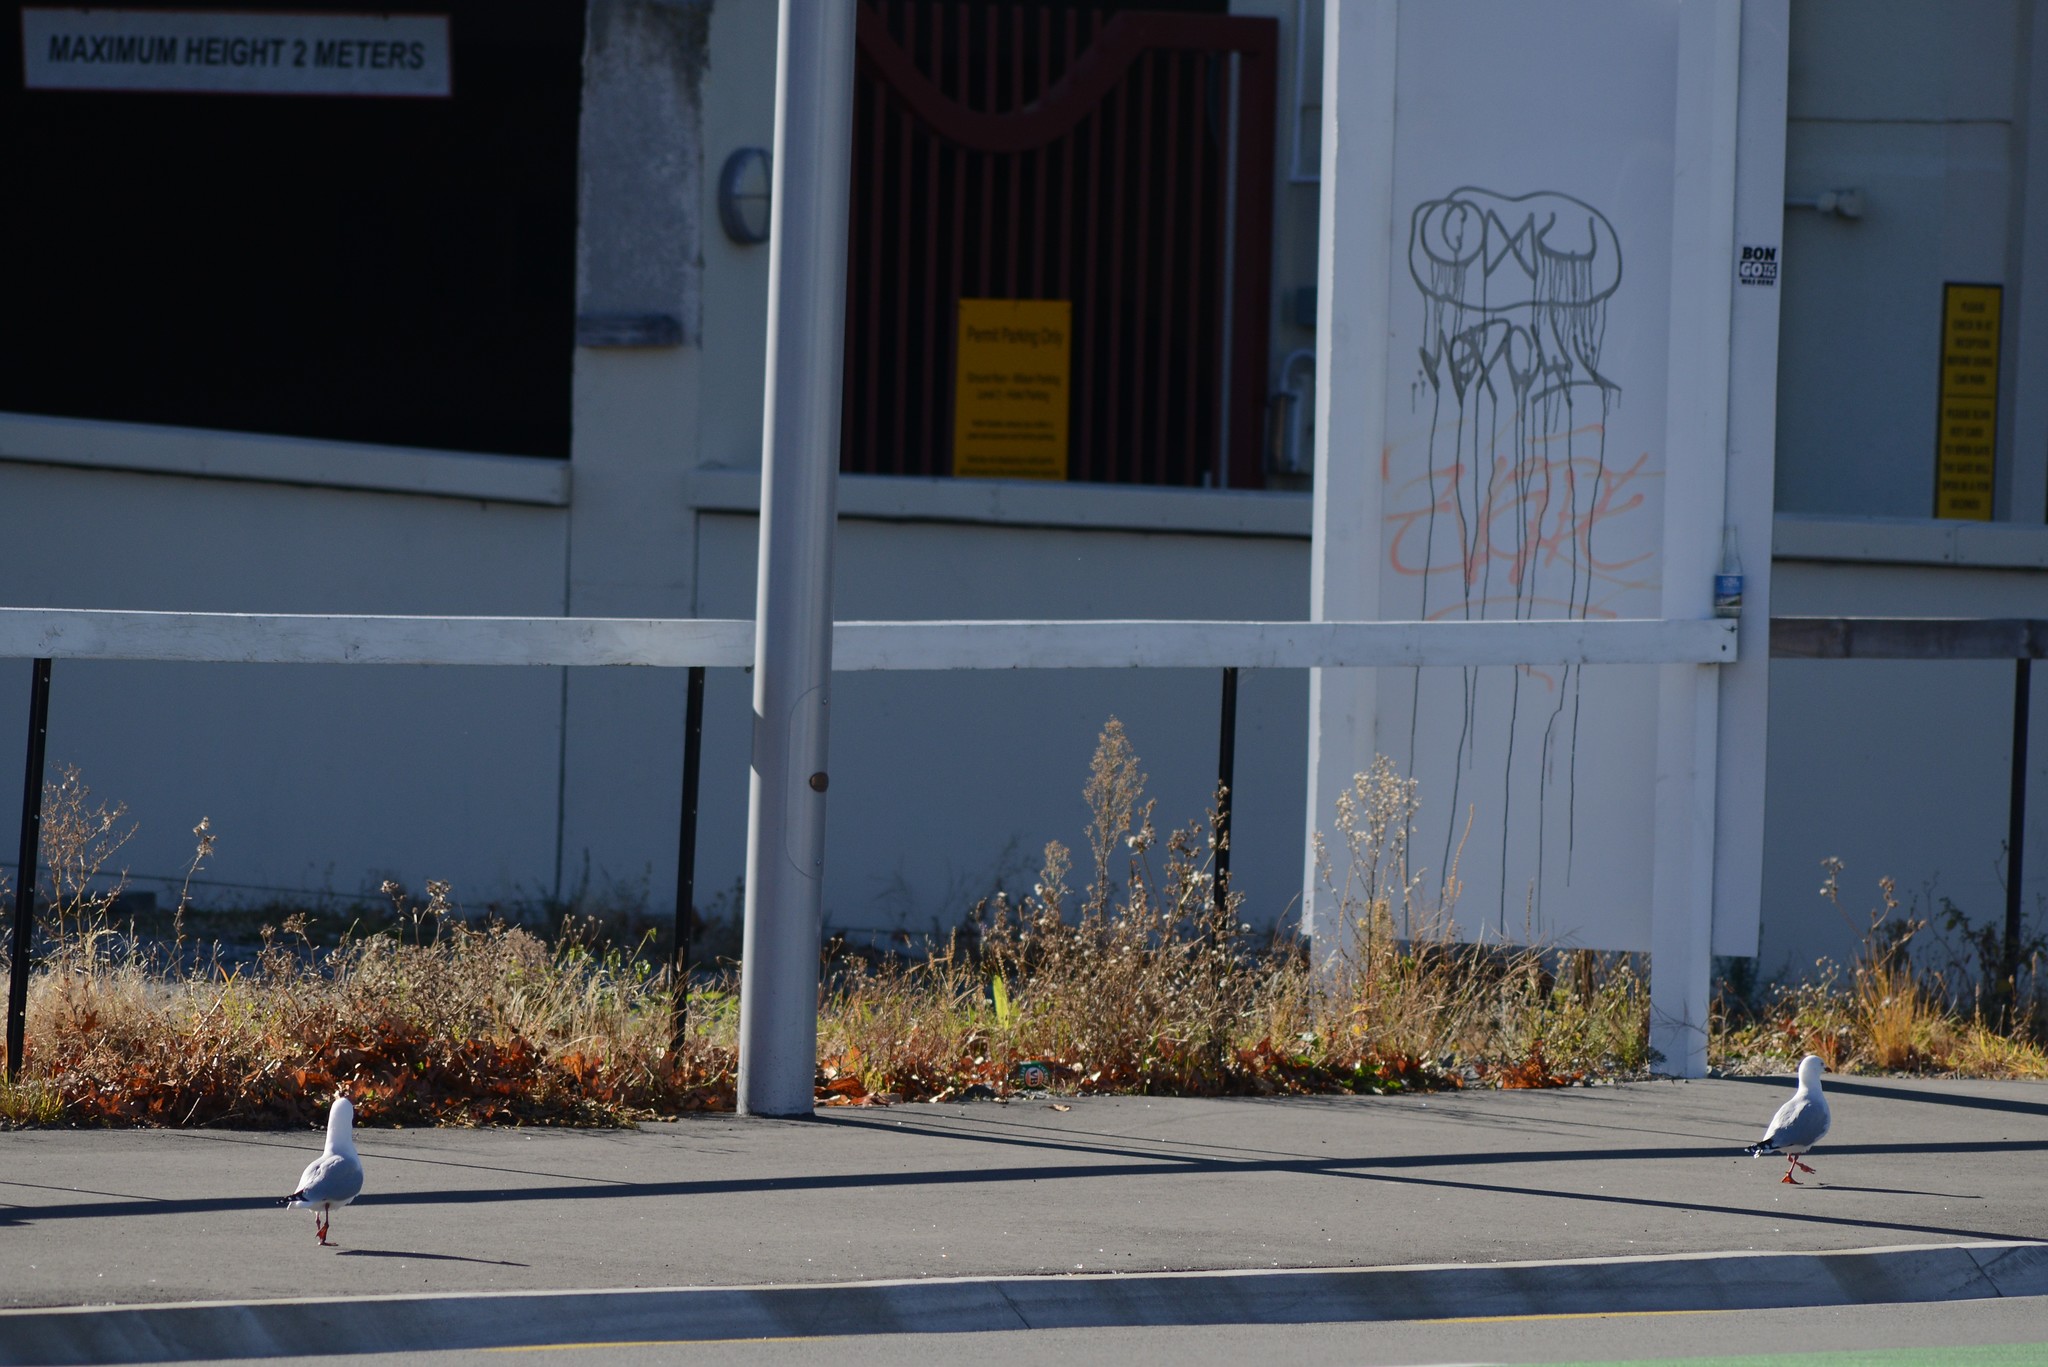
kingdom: Animalia
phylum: Chordata
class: Aves
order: Charadriiformes
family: Laridae
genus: Chroicocephalus
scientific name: Chroicocephalus novaehollandiae
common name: Silver gull
